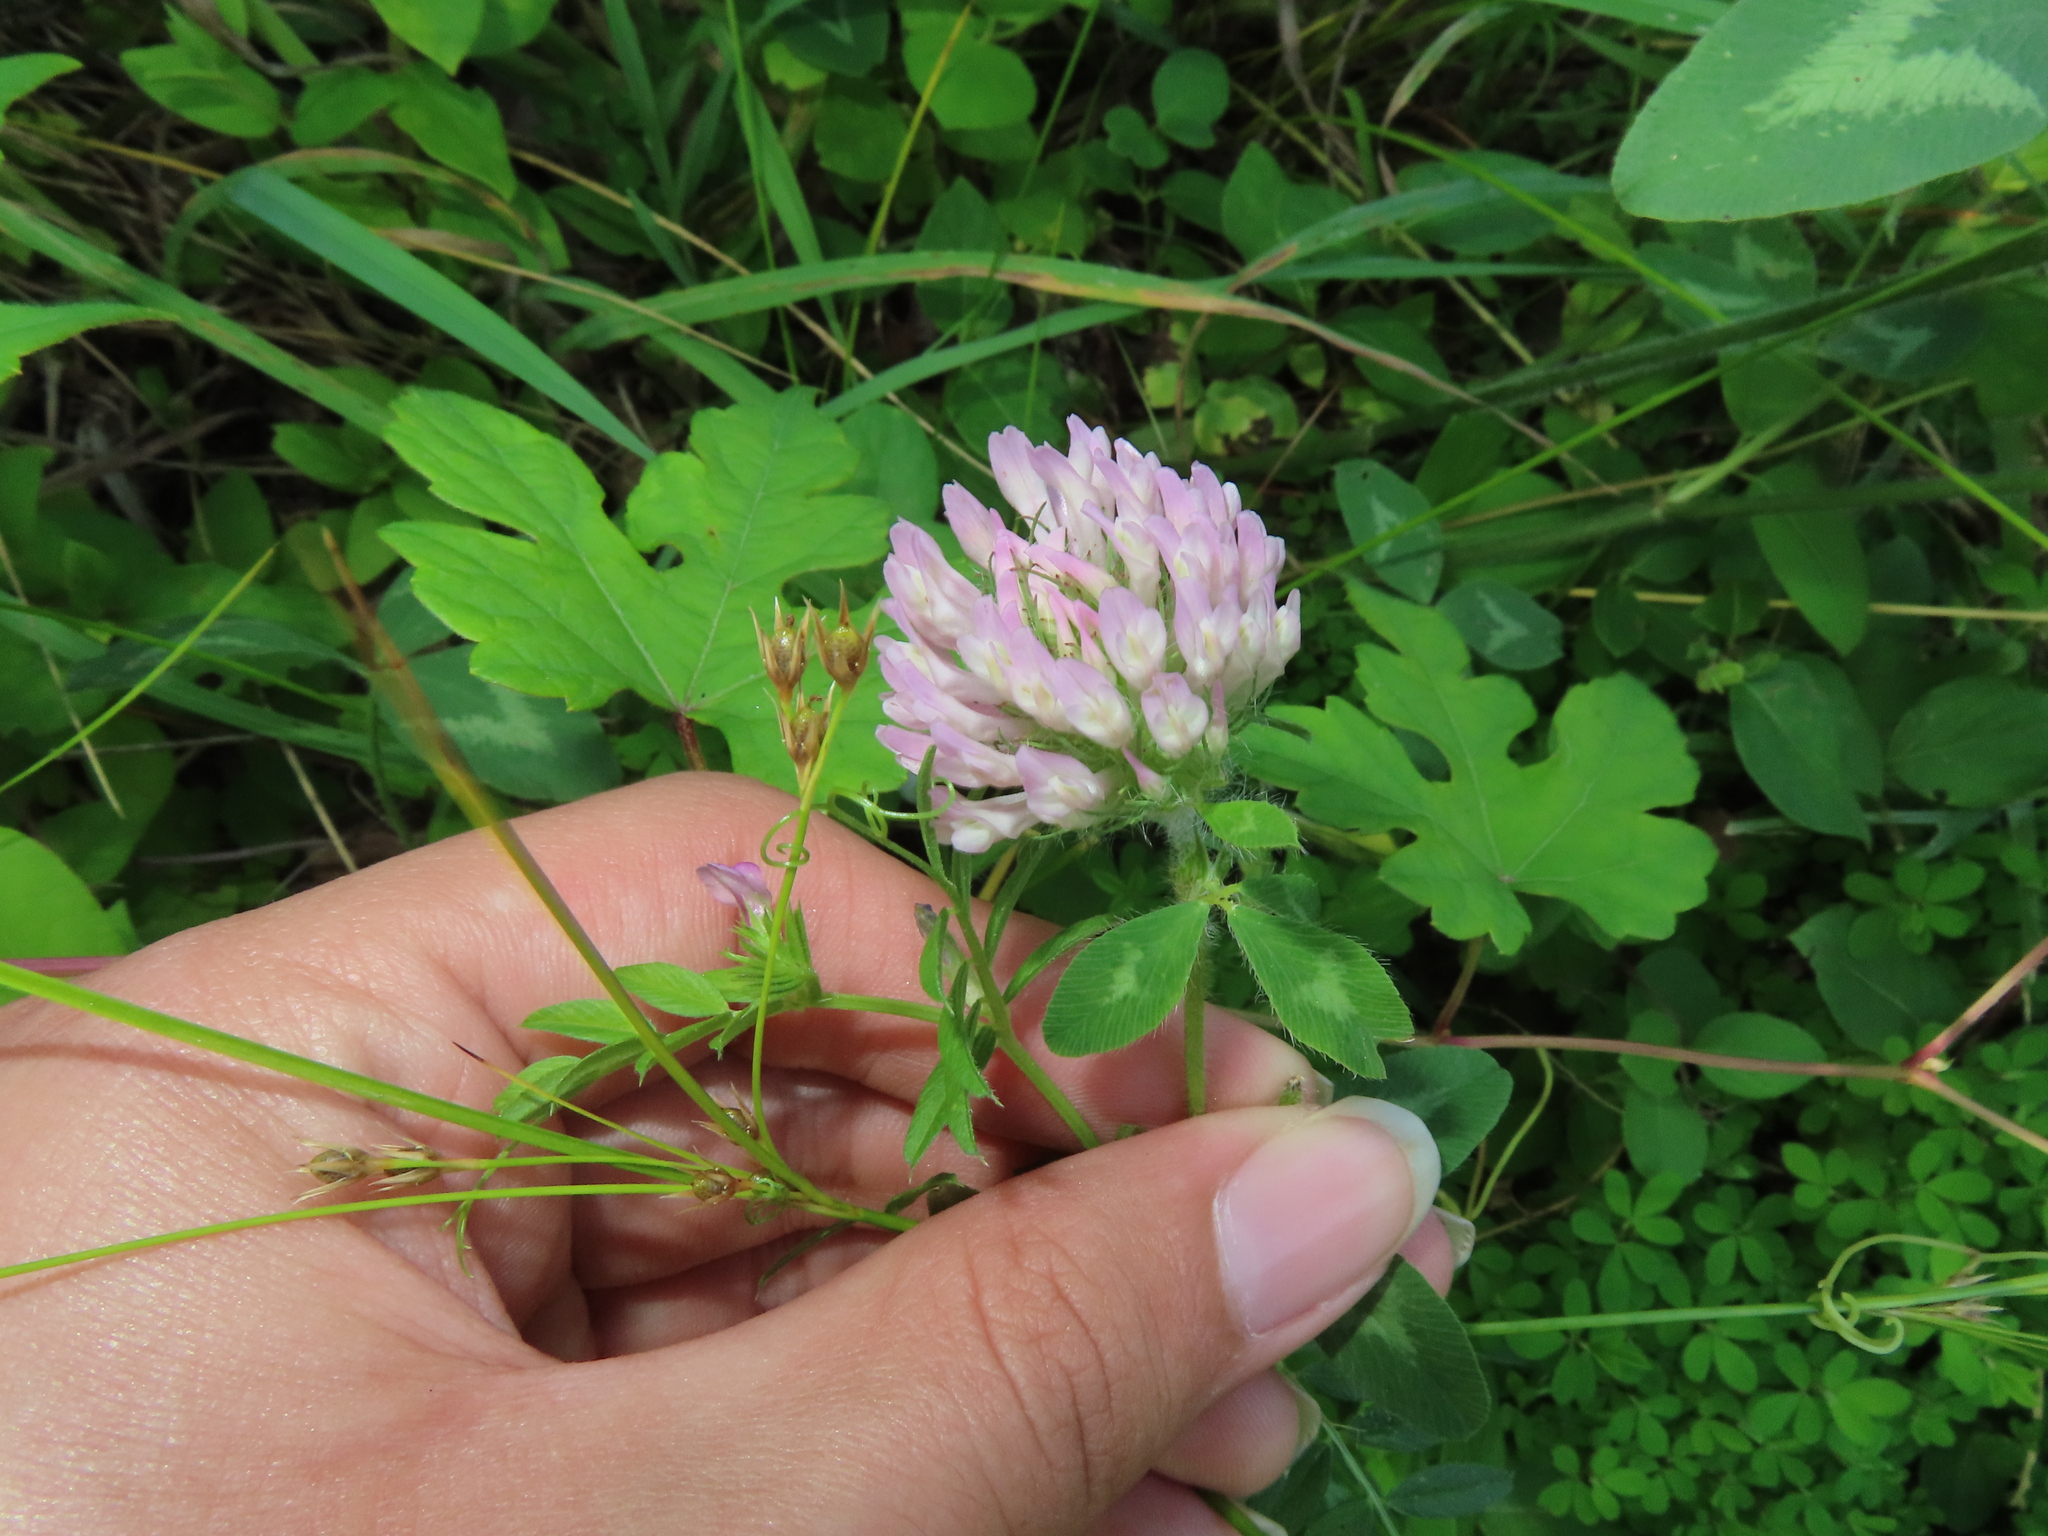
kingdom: Plantae
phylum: Tracheophyta
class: Magnoliopsida
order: Fabales
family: Fabaceae
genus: Trifolium
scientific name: Trifolium pratense
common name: Red clover
